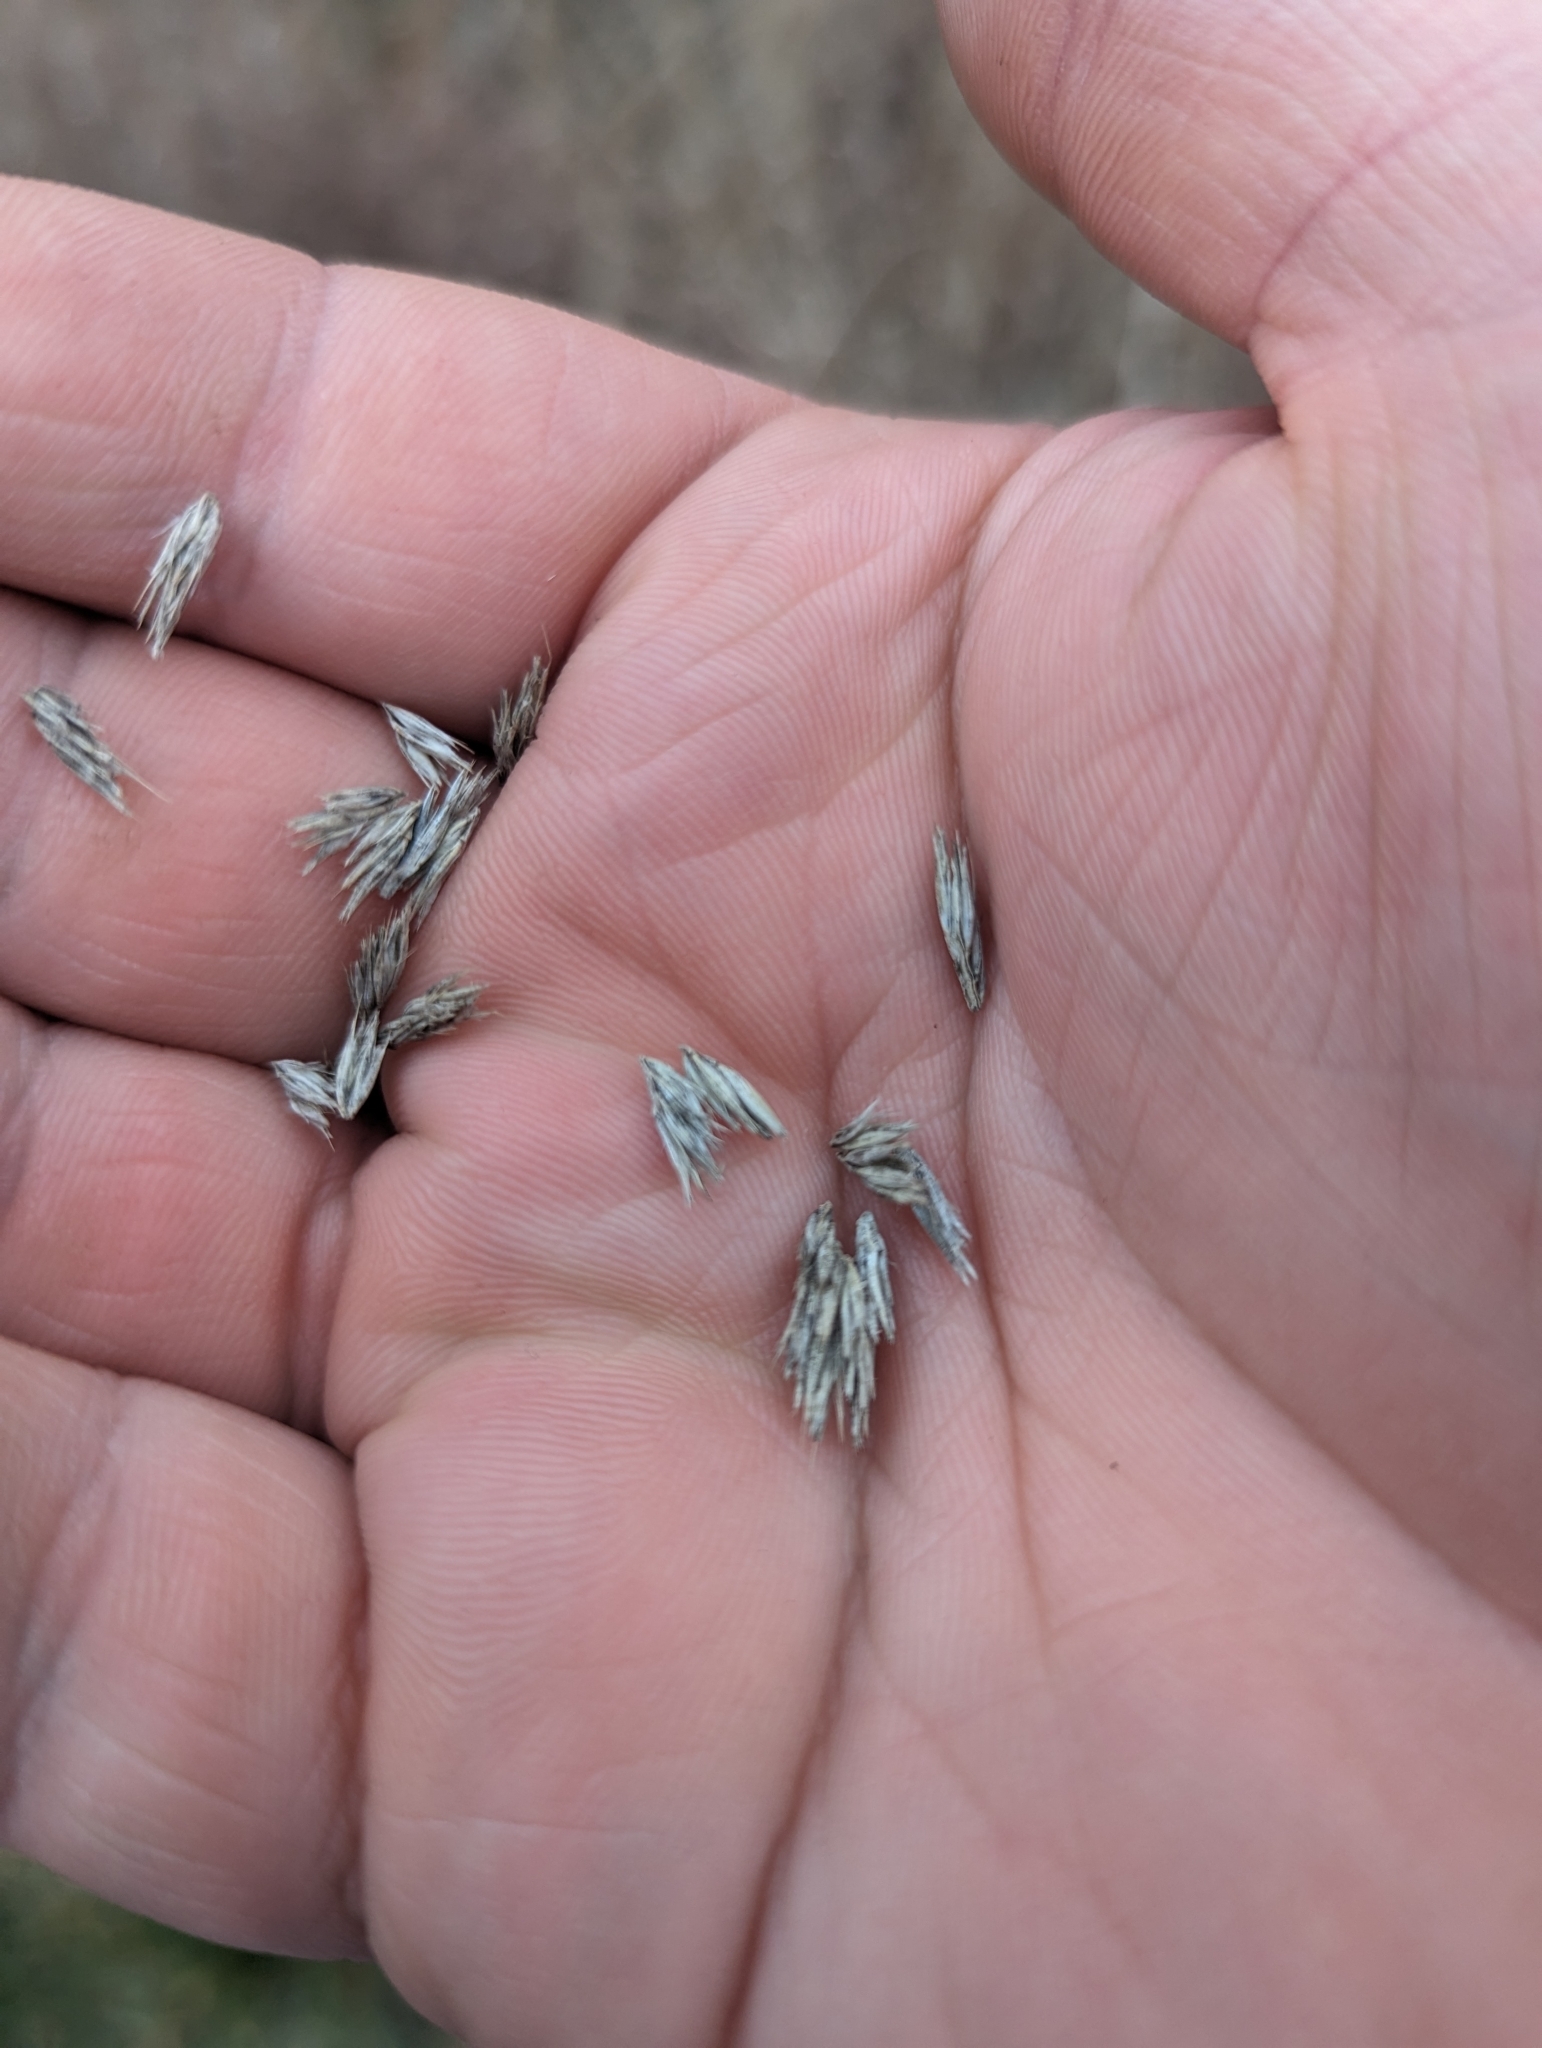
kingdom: Plantae
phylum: Tracheophyta
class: Liliopsida
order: Poales
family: Poaceae
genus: Bouteloua
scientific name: Bouteloua curtipendula
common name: Side-oats grama
